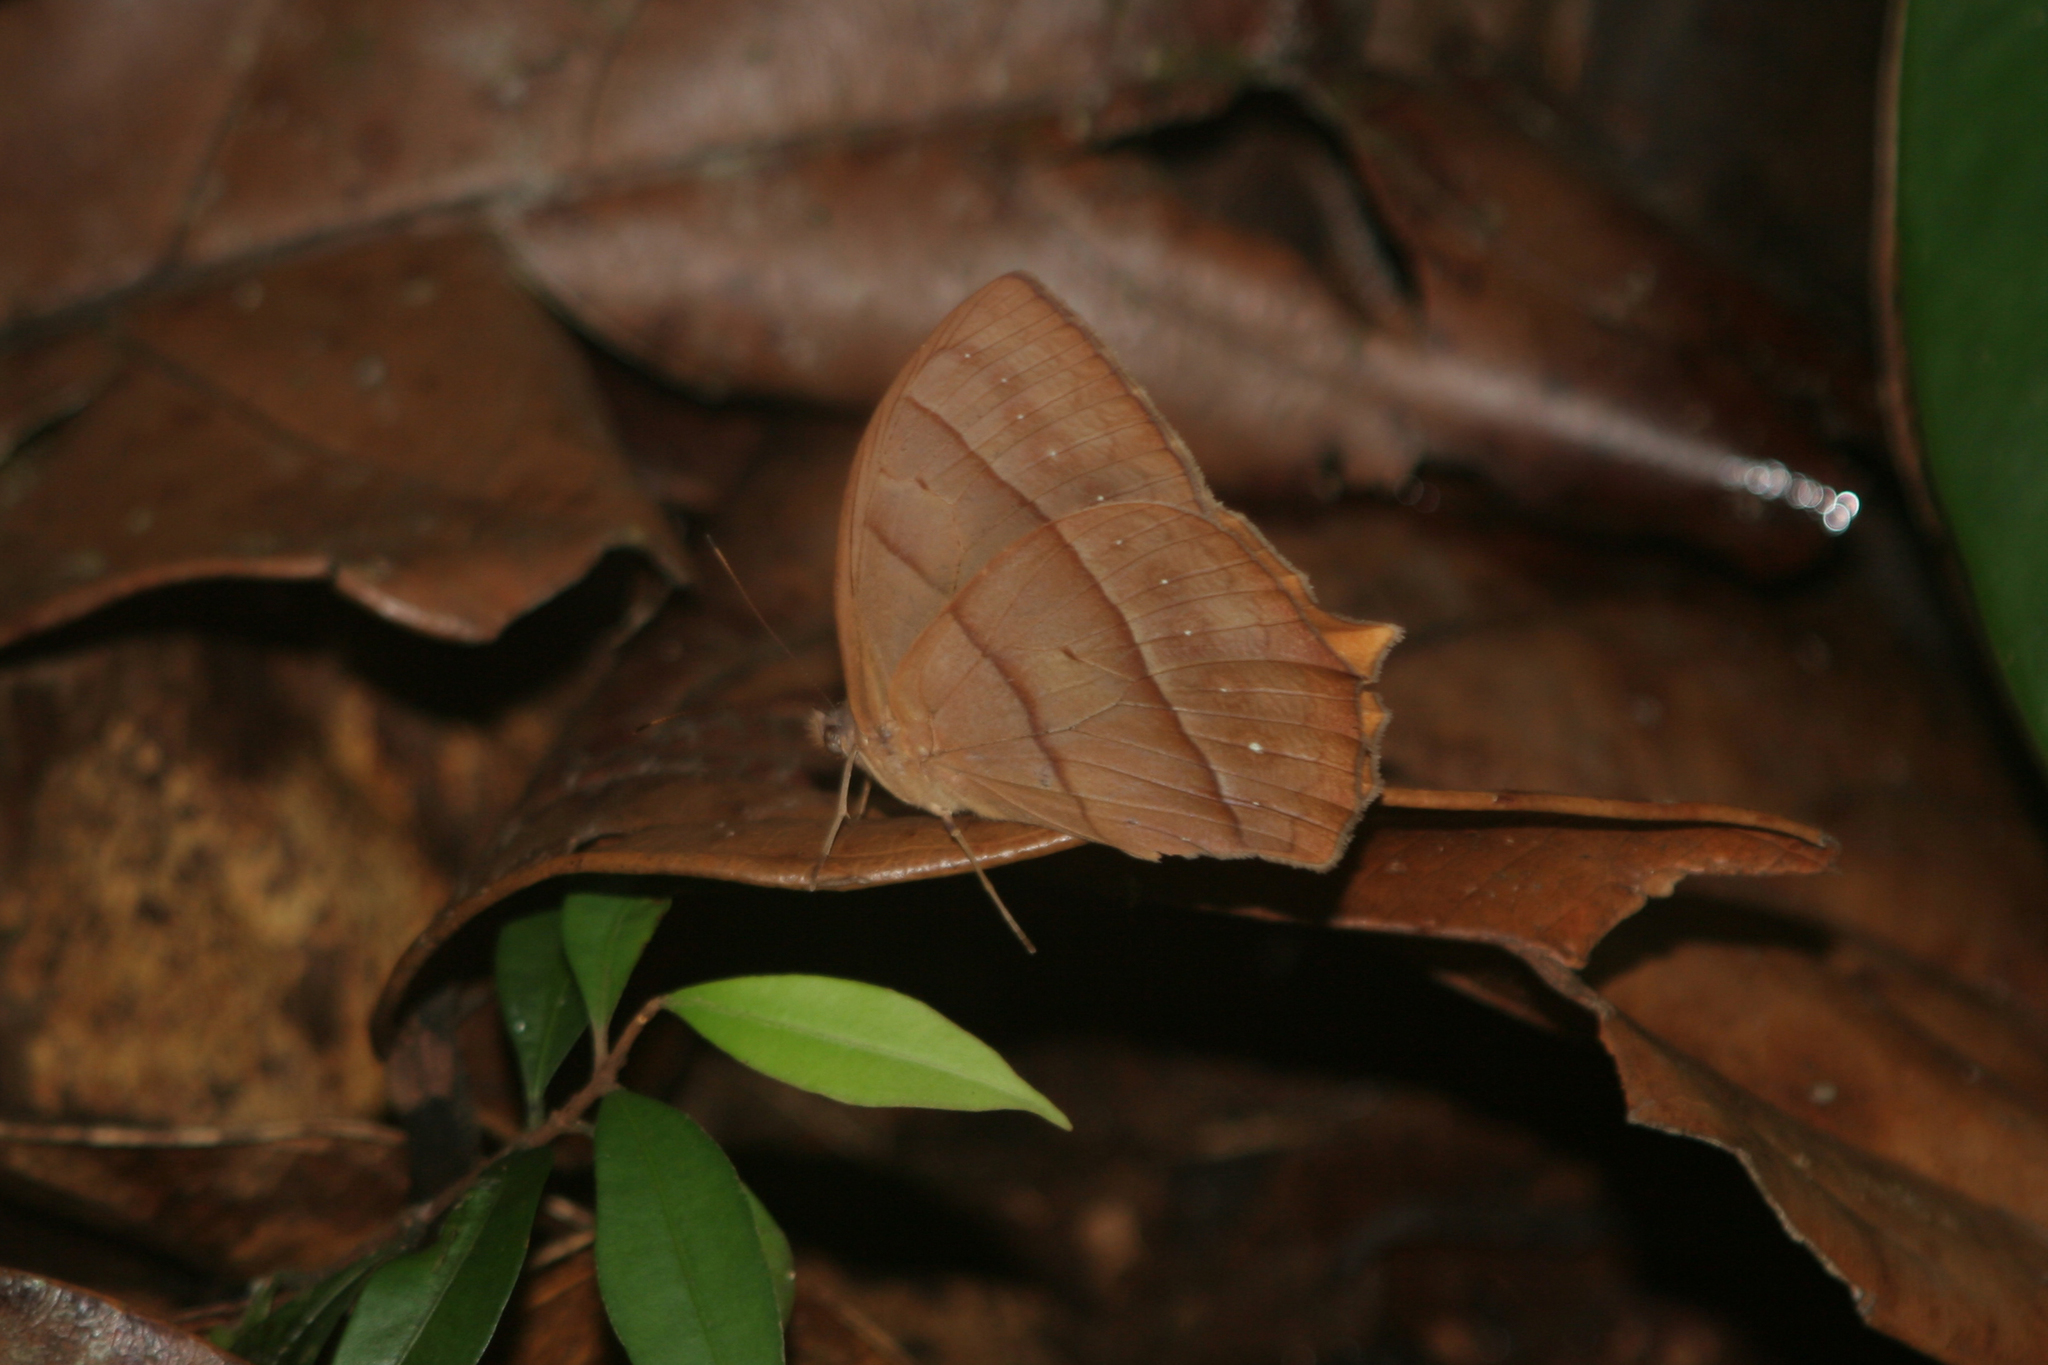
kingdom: Animalia
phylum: Arthropoda
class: Insecta
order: Lepidoptera
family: Nymphalidae
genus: Taygetis
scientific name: Taygetis virgilia
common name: Stub-tailed satyr
